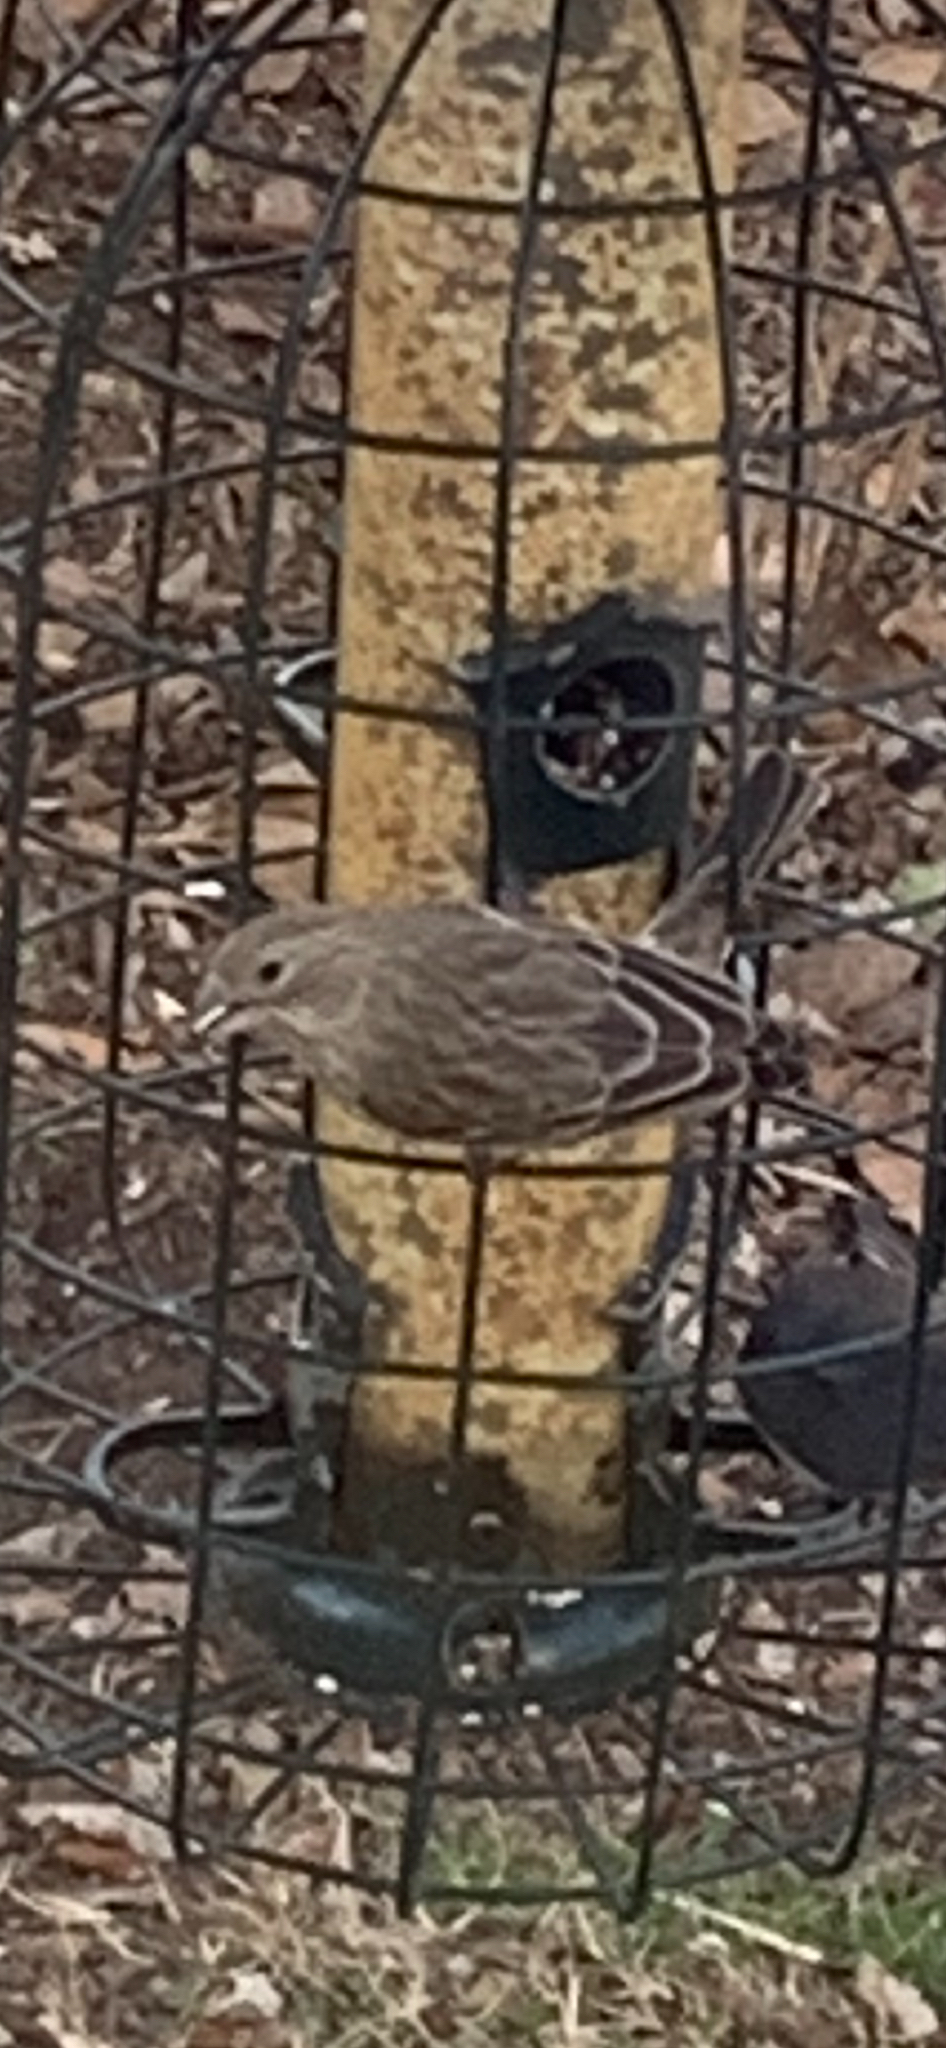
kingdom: Animalia
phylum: Chordata
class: Aves
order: Passeriformes
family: Fringillidae
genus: Haemorhous
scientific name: Haemorhous mexicanus
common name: House finch
